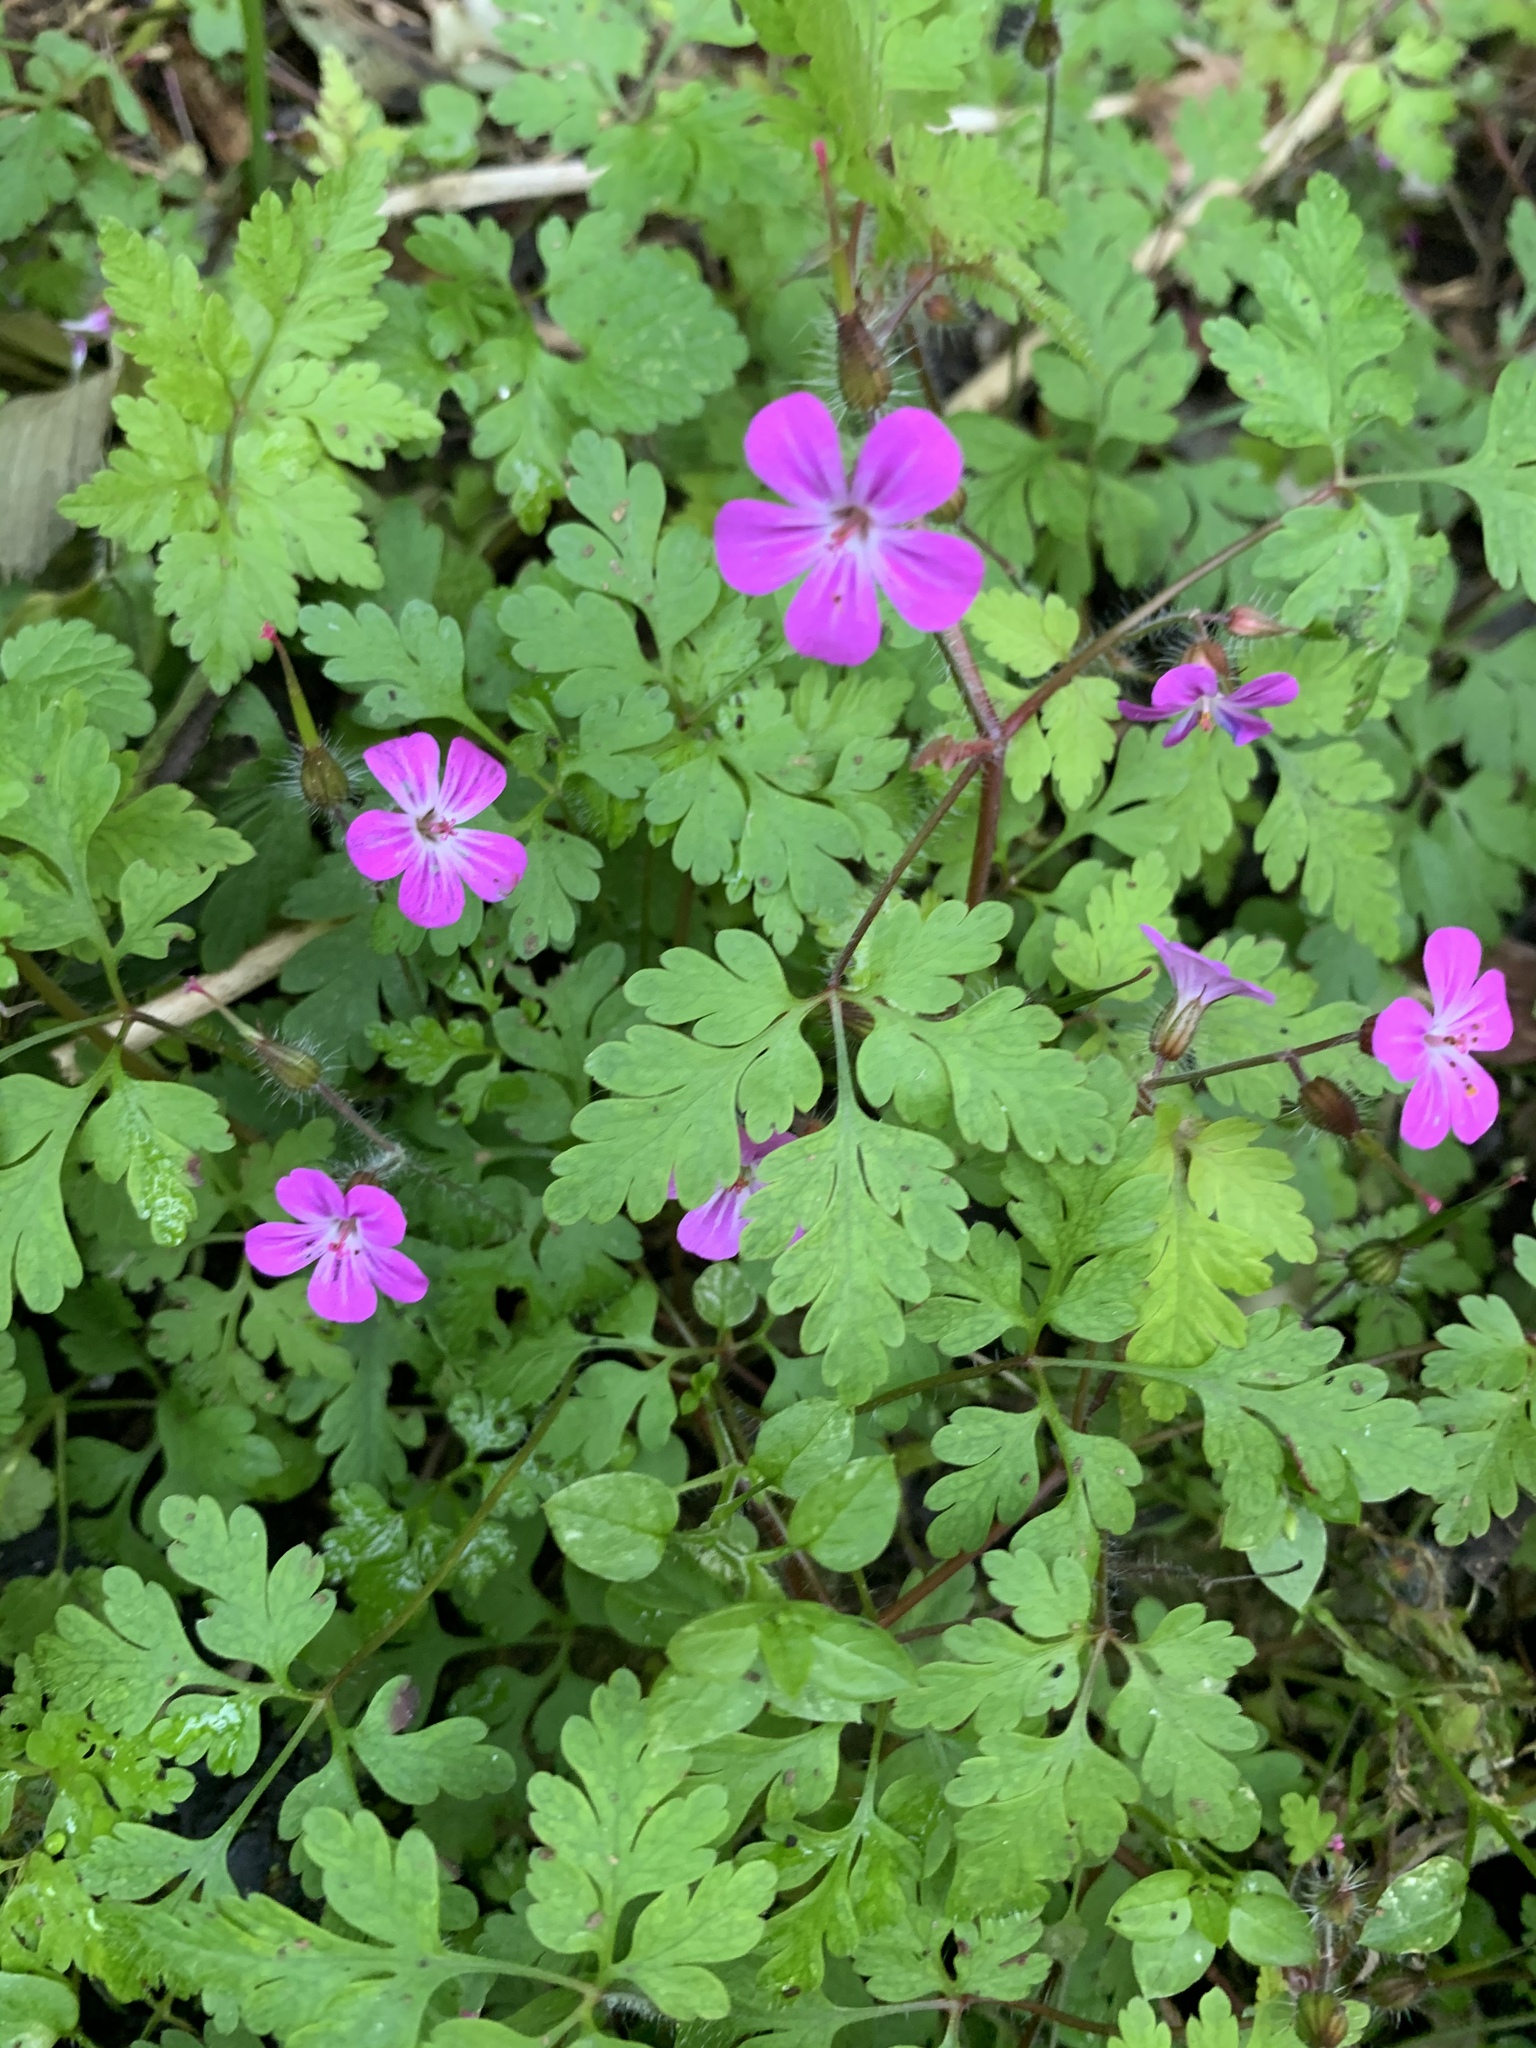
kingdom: Plantae
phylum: Tracheophyta
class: Magnoliopsida
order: Geraniales
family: Geraniaceae
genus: Geranium
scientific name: Geranium robertianum
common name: Herb-robert
